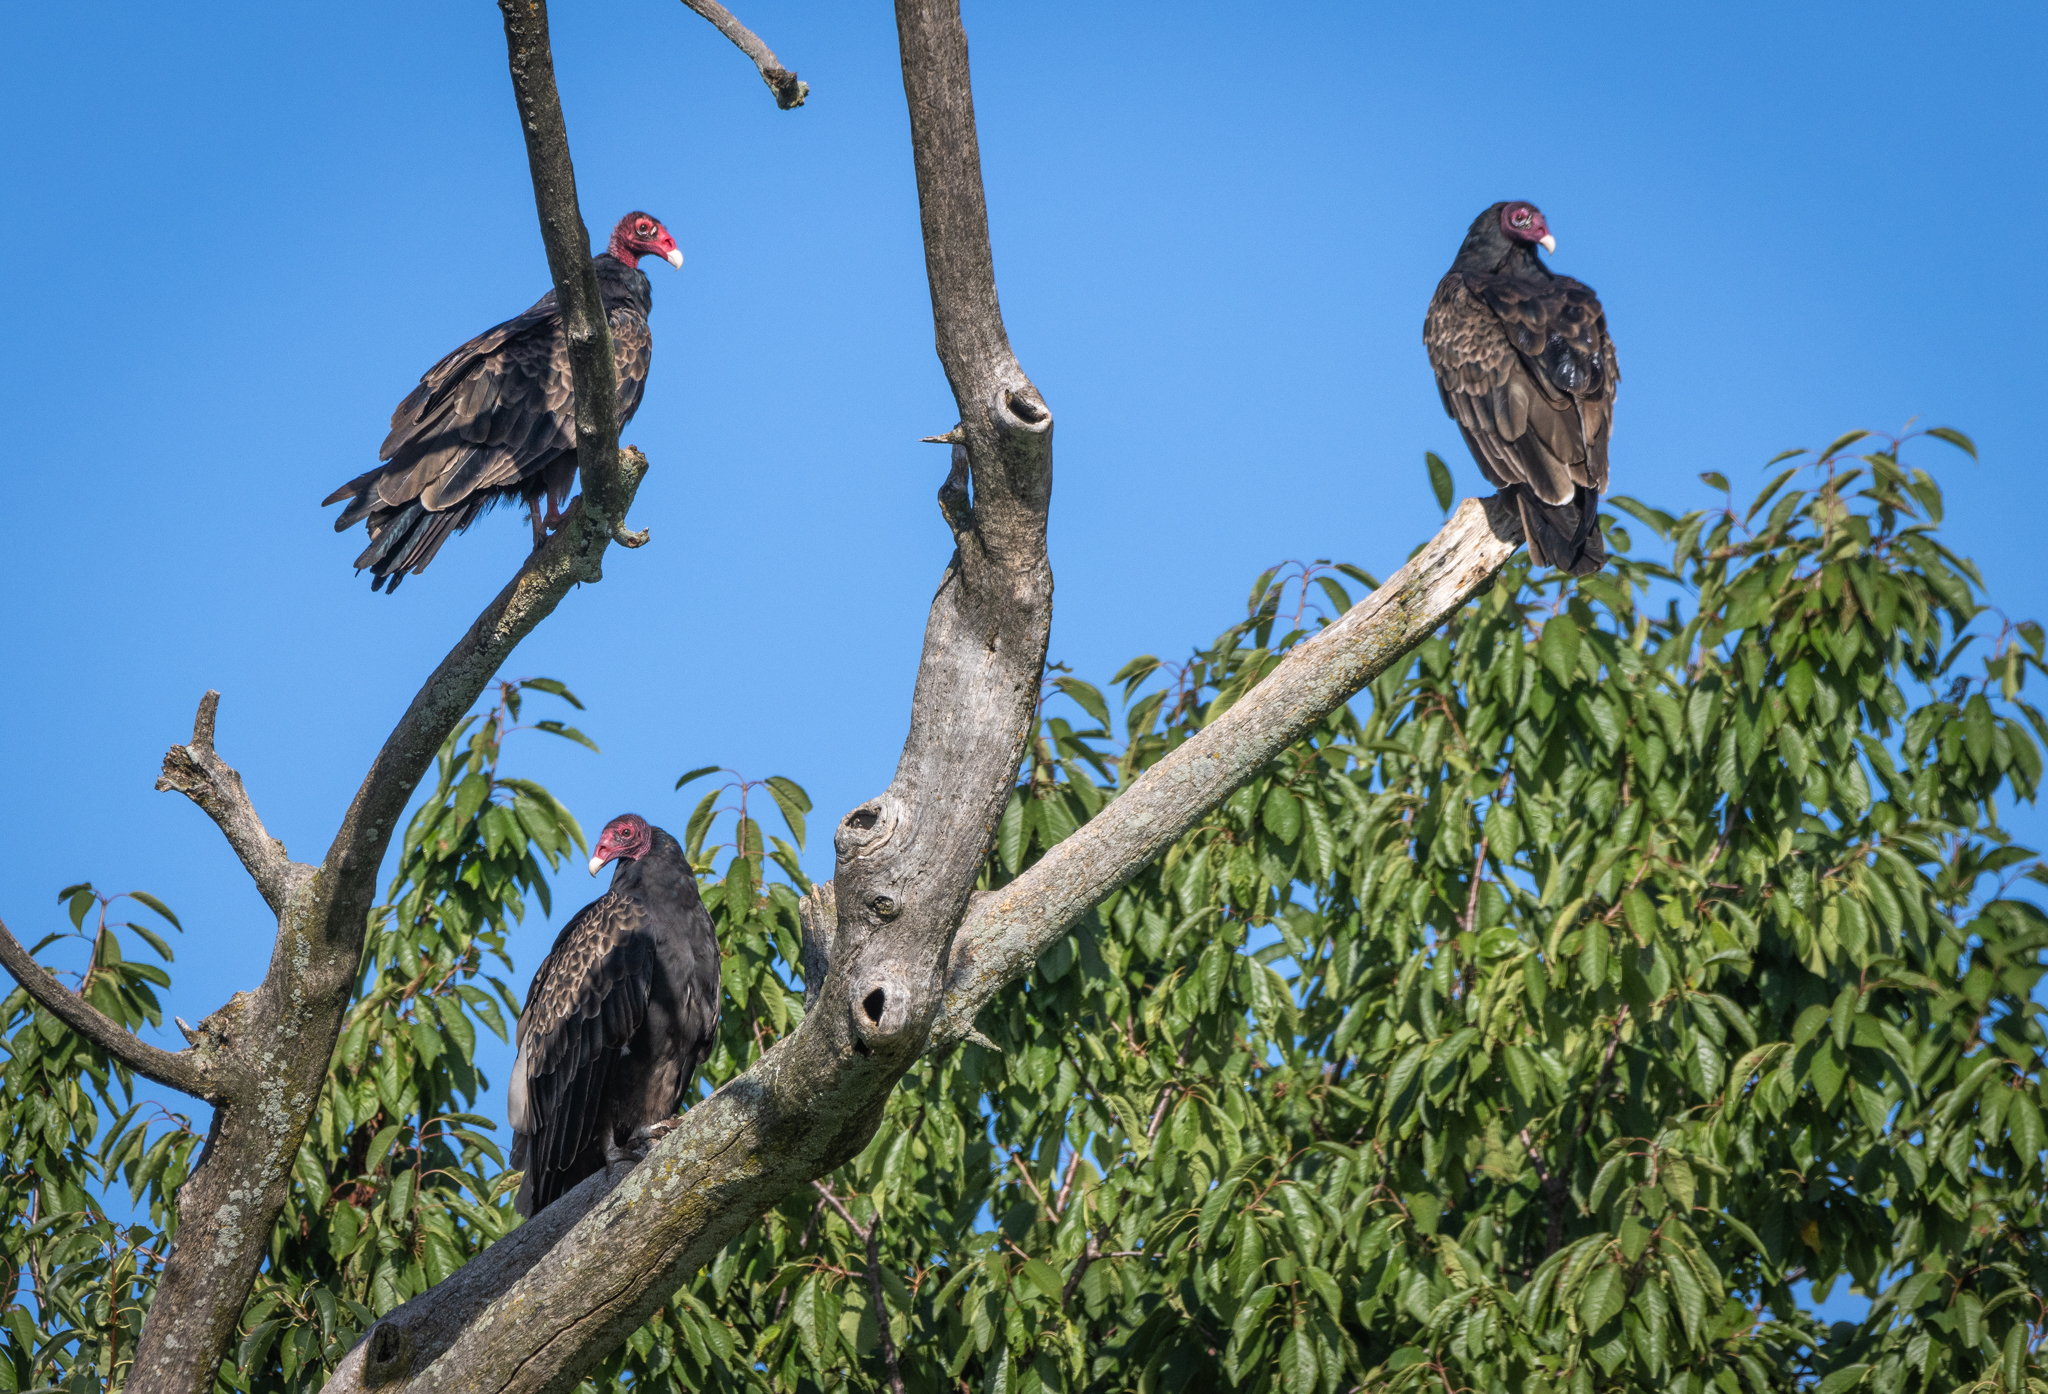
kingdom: Animalia
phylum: Chordata
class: Aves
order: Accipitriformes
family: Cathartidae
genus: Cathartes
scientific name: Cathartes aura
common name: Turkey vulture
